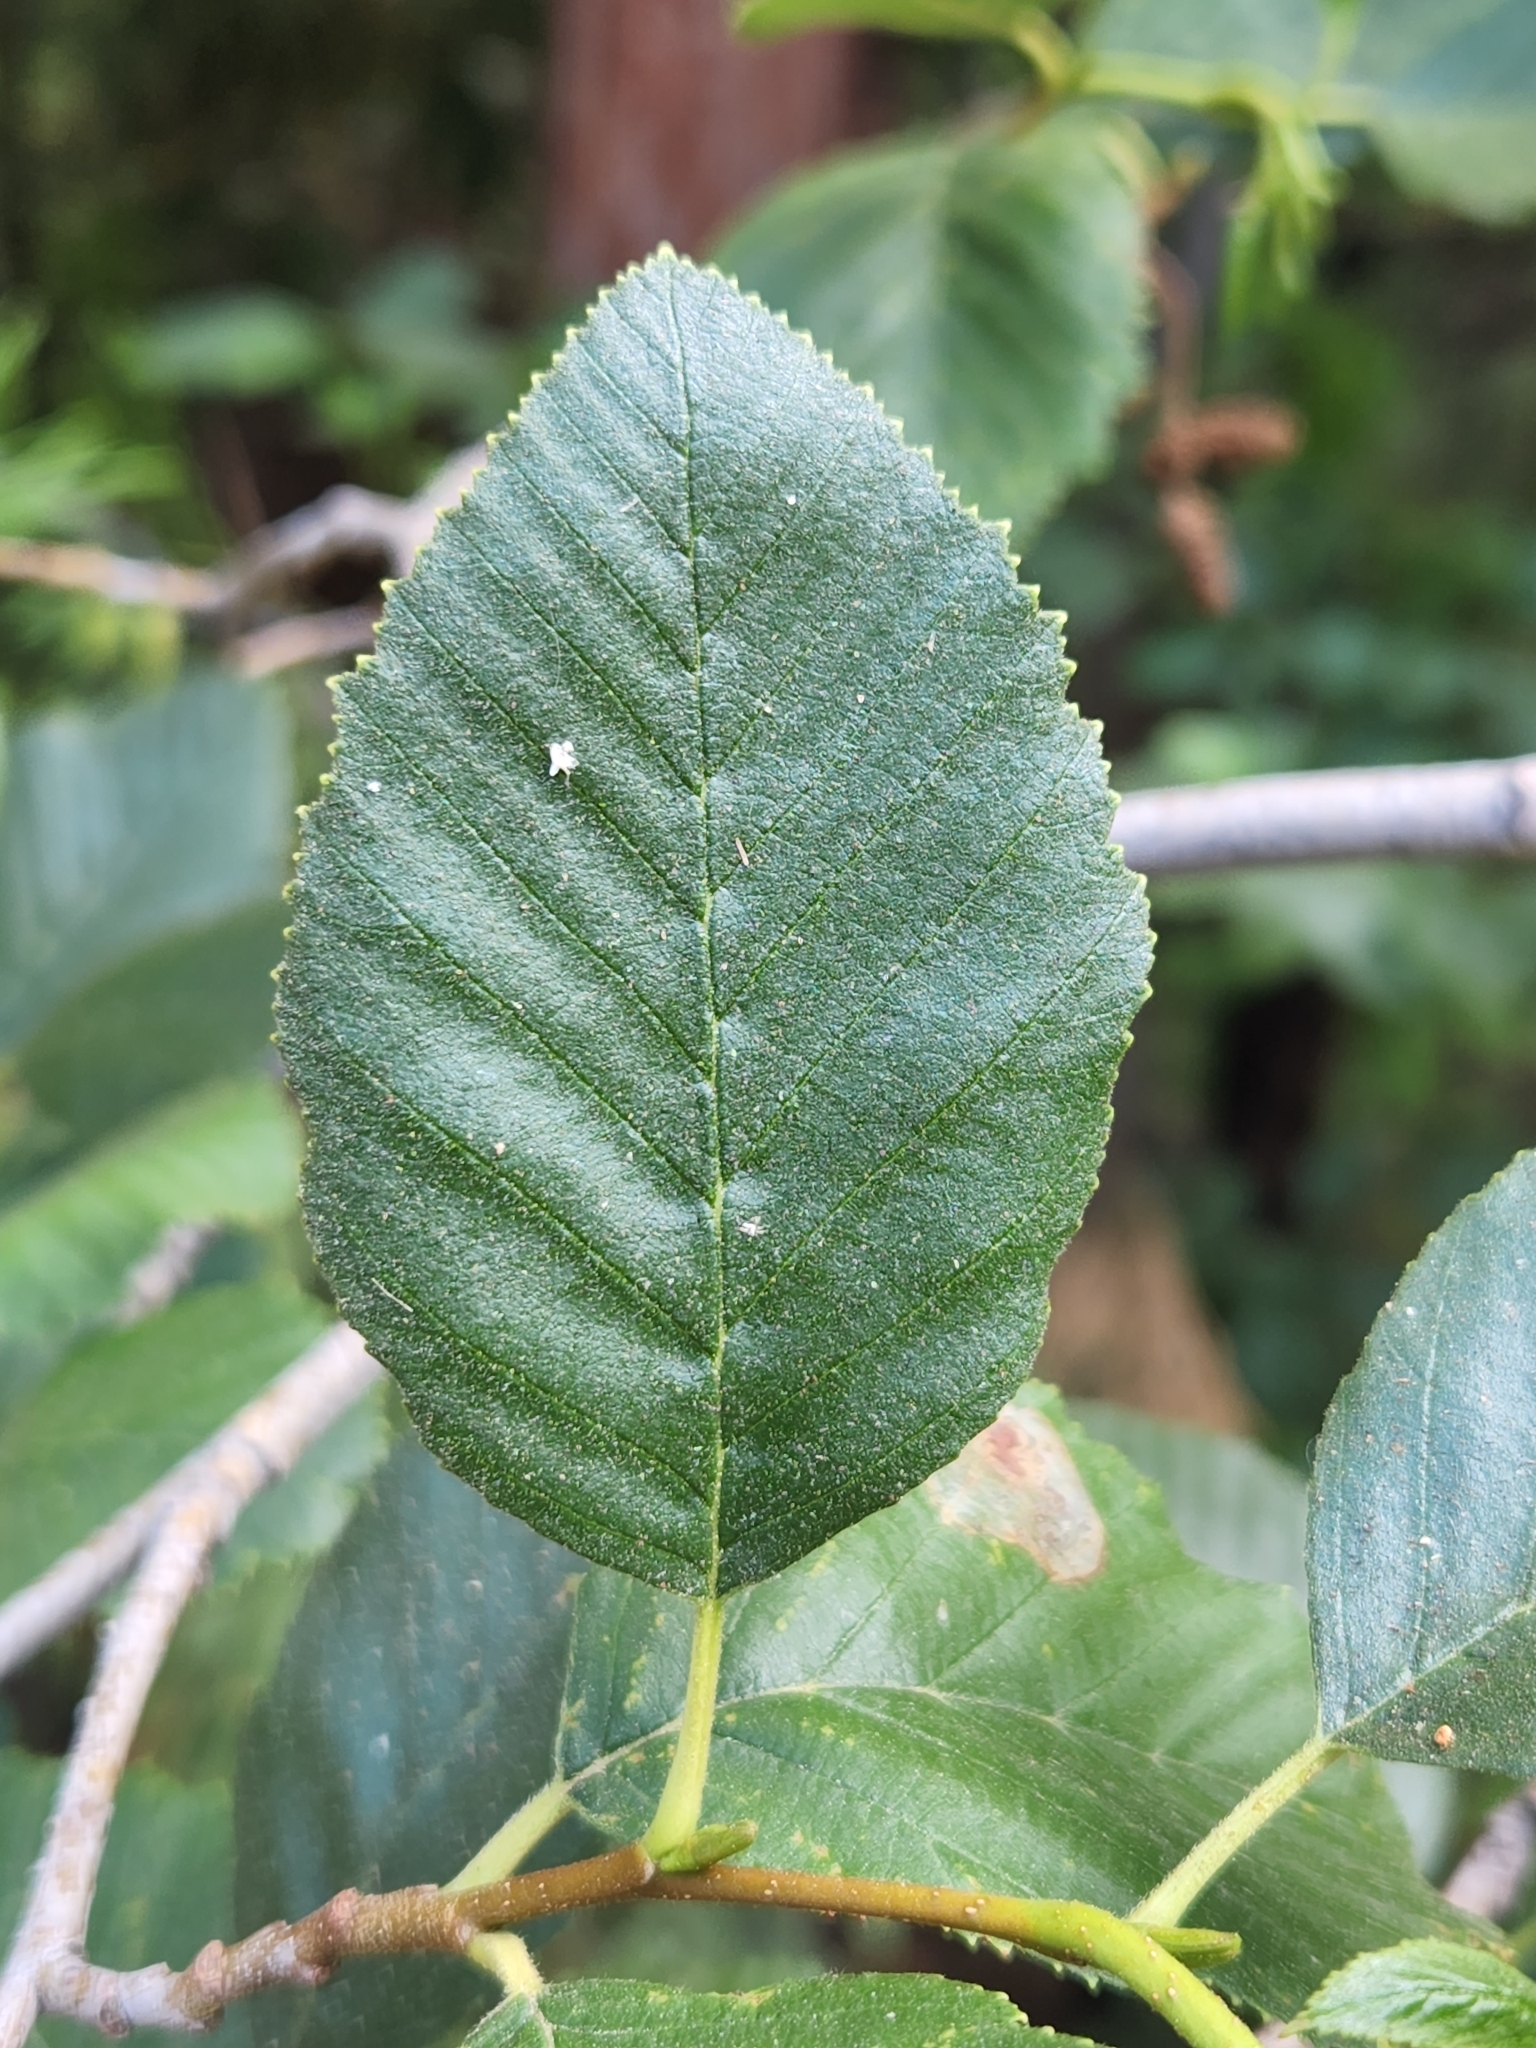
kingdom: Plantae
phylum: Tracheophyta
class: Magnoliopsida
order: Fagales
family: Betulaceae
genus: Alnus
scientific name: Alnus rhombifolia
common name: California alder
